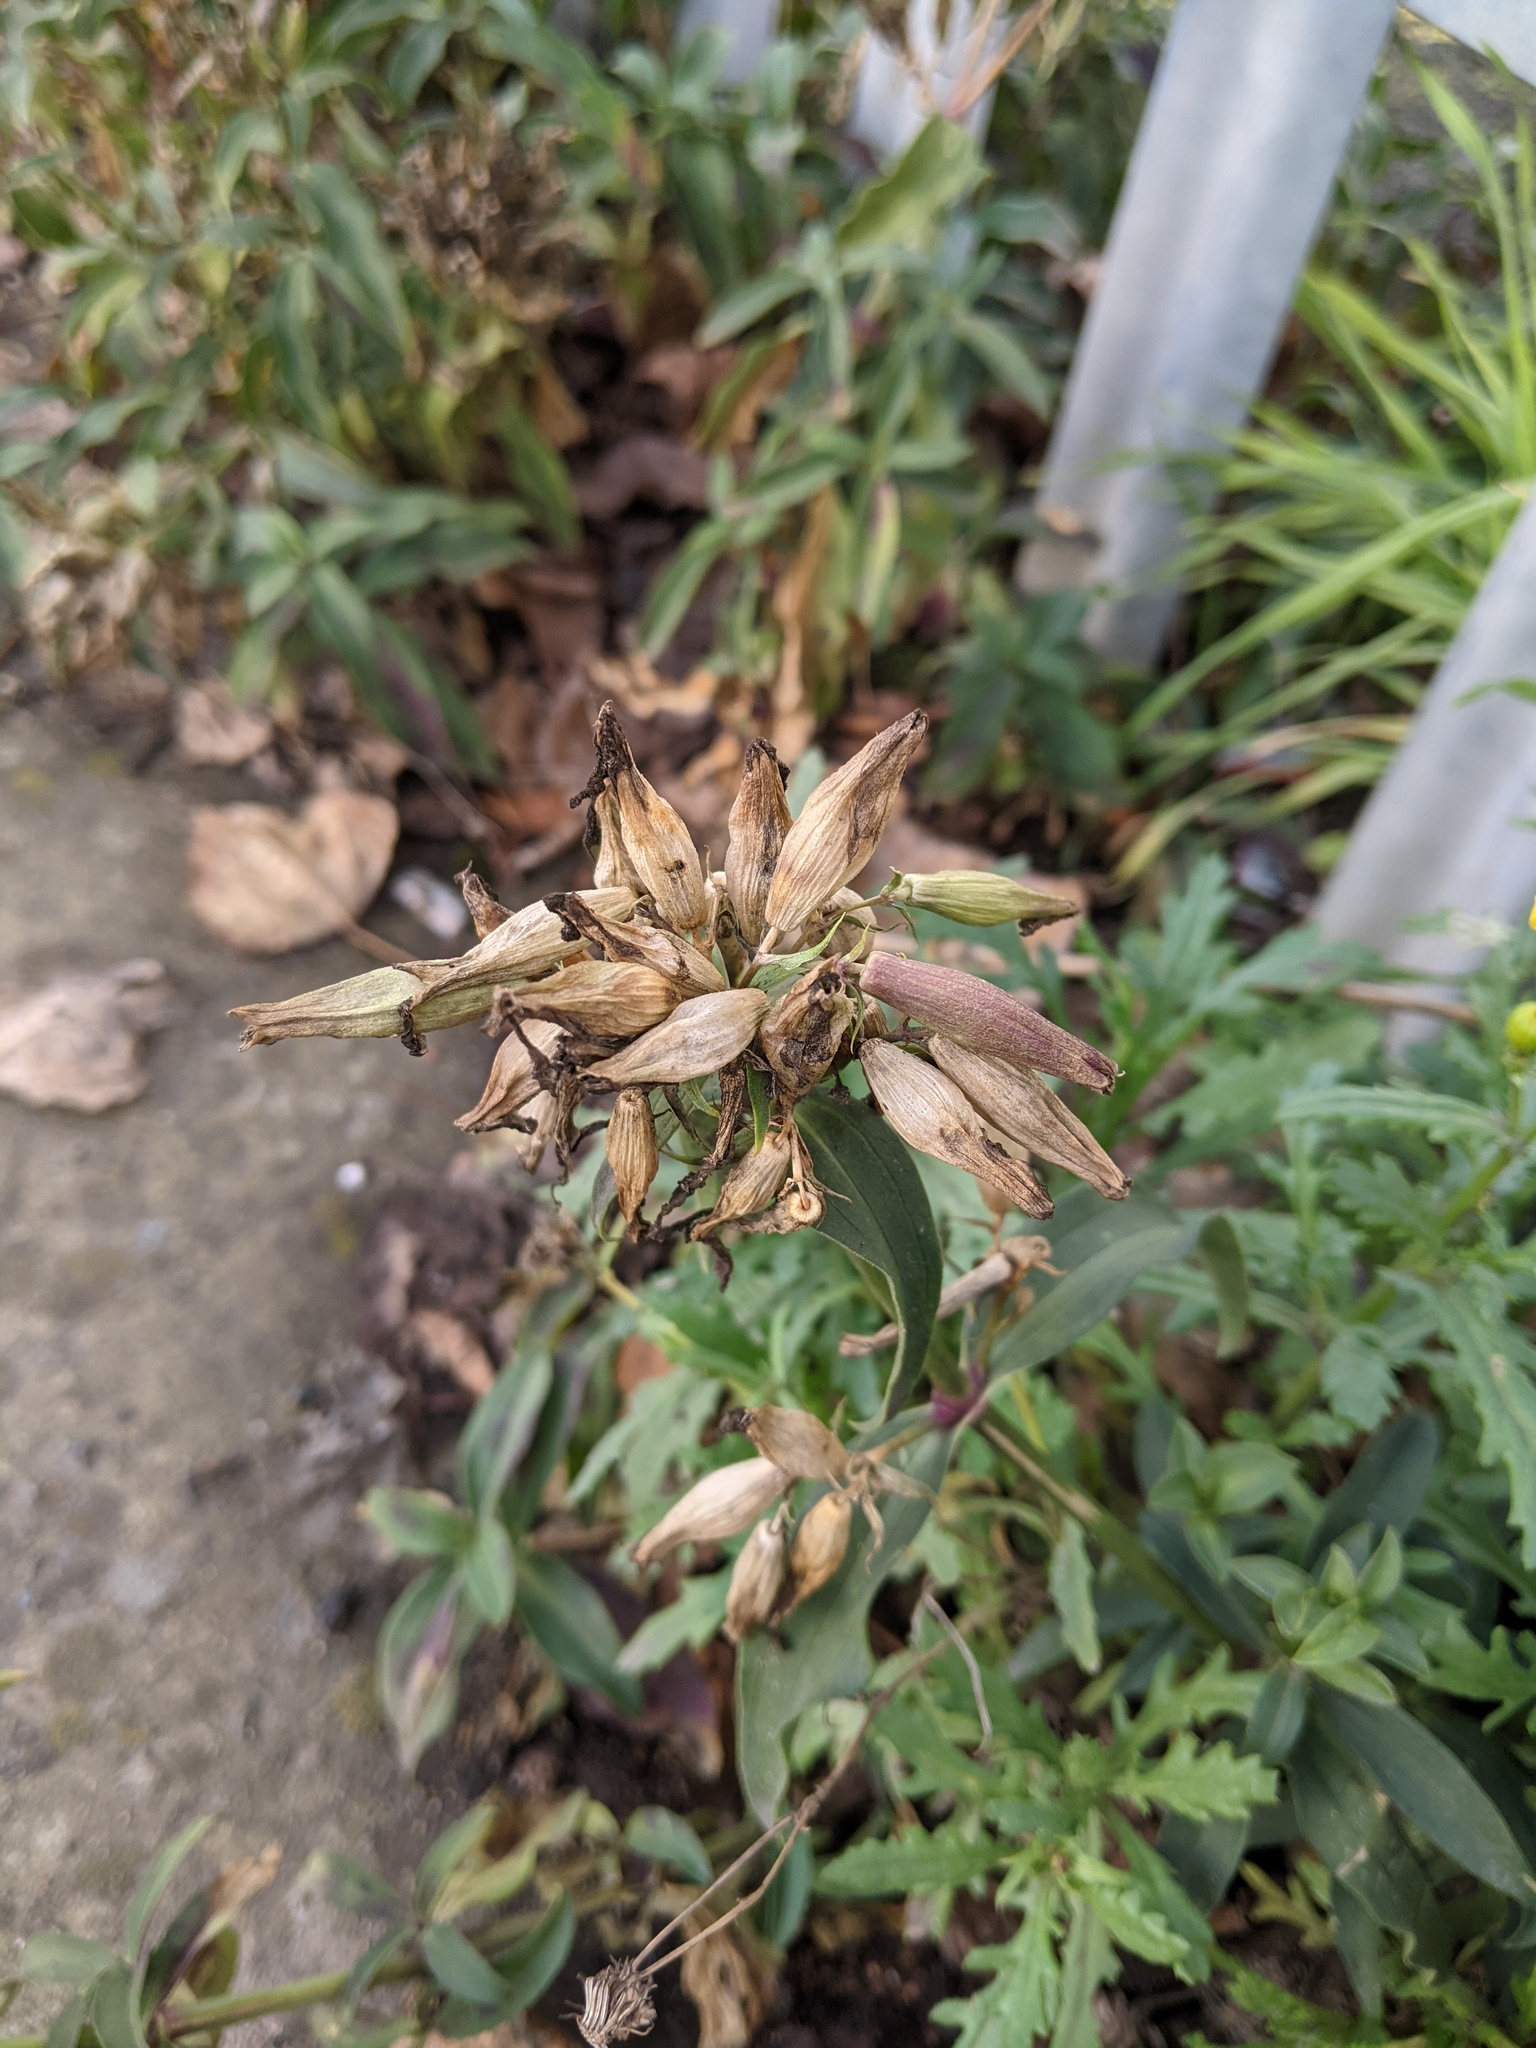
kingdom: Plantae
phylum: Tracheophyta
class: Magnoliopsida
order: Caryophyllales
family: Caryophyllaceae
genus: Saponaria
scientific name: Saponaria officinalis
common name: Soapwort
